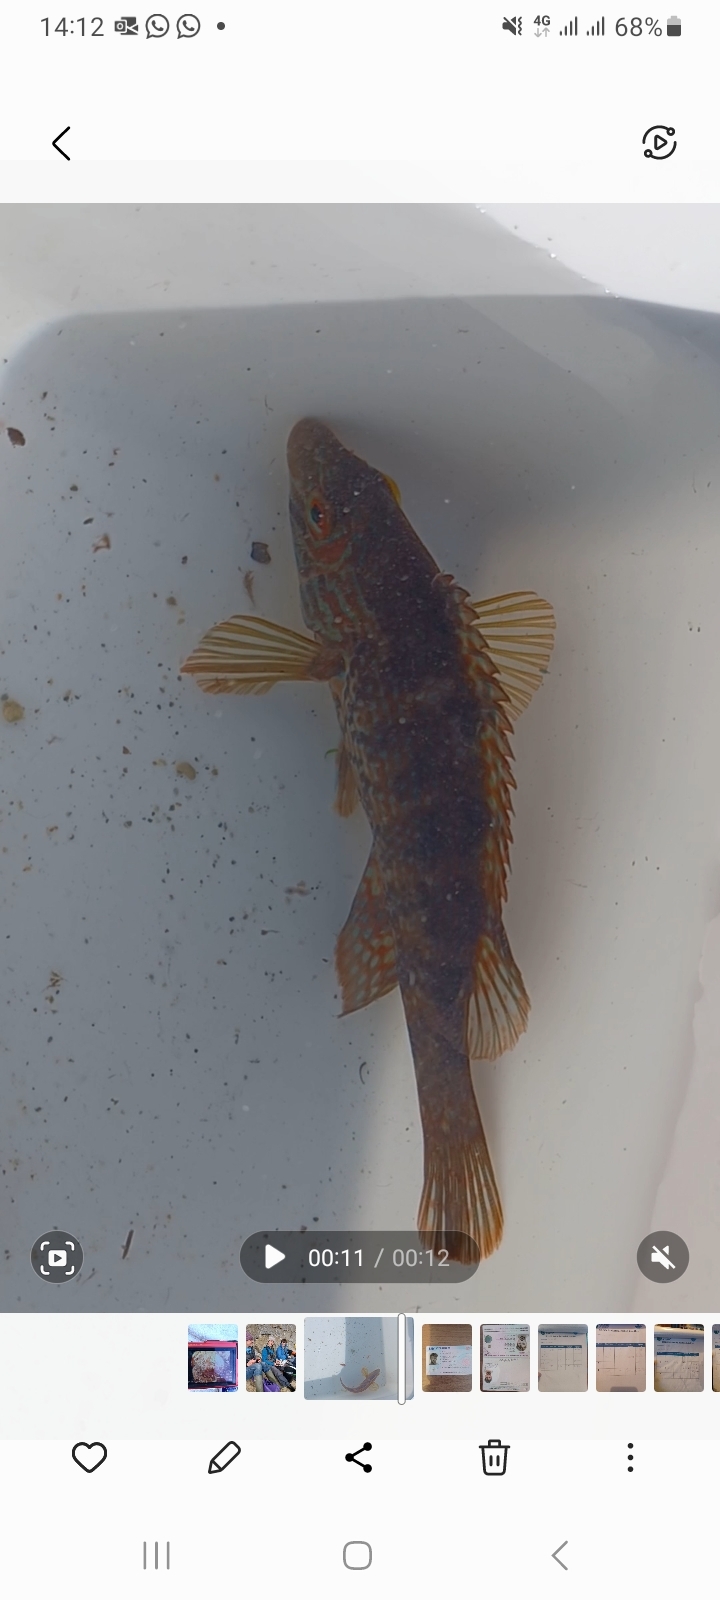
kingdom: Animalia
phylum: Chordata
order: Perciformes
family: Labridae
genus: Symphodus
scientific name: Symphodus melops
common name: Corkwing
